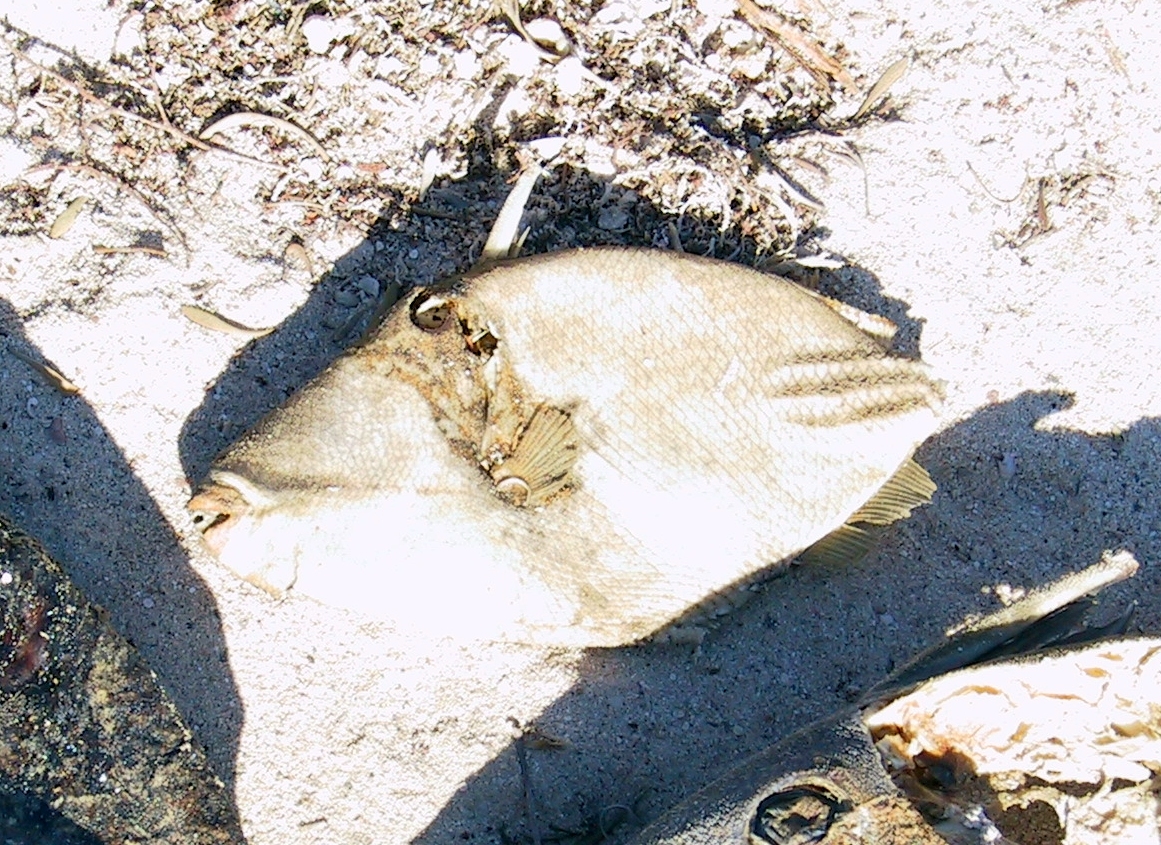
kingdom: Animalia
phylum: Chordata
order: Tetraodontiformes
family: Balistidae
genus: Rhinecanthus
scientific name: Rhinecanthus assasi
